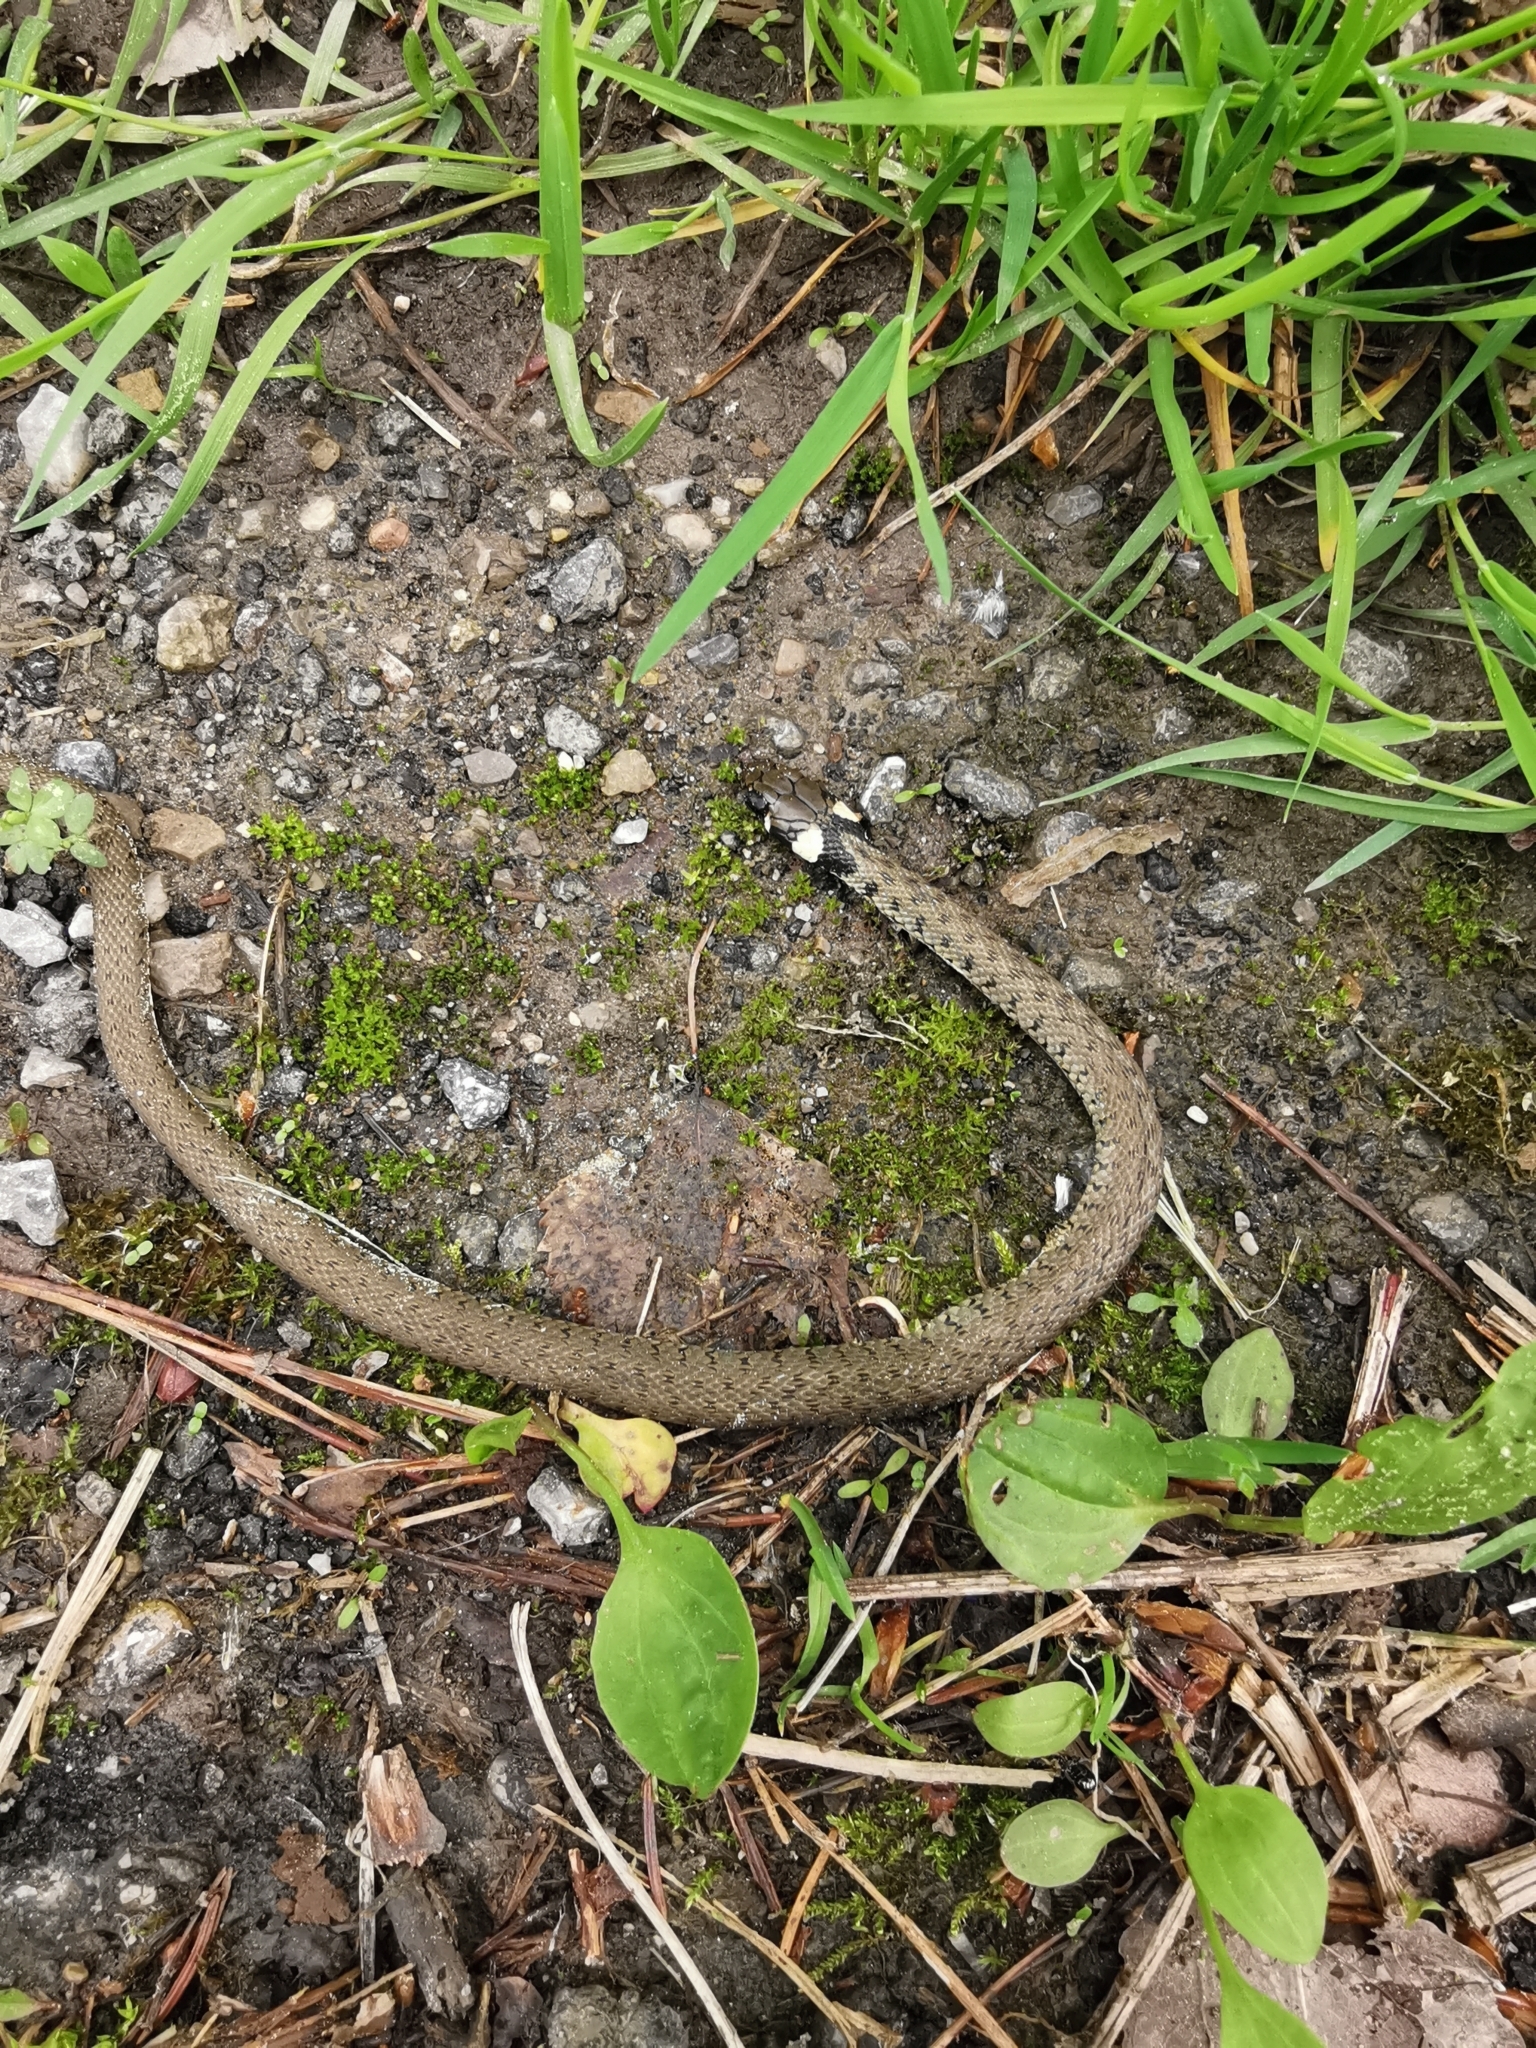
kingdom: Animalia
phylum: Chordata
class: Squamata
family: Colubridae
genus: Natrix
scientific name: Natrix natrix
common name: Grass snake
